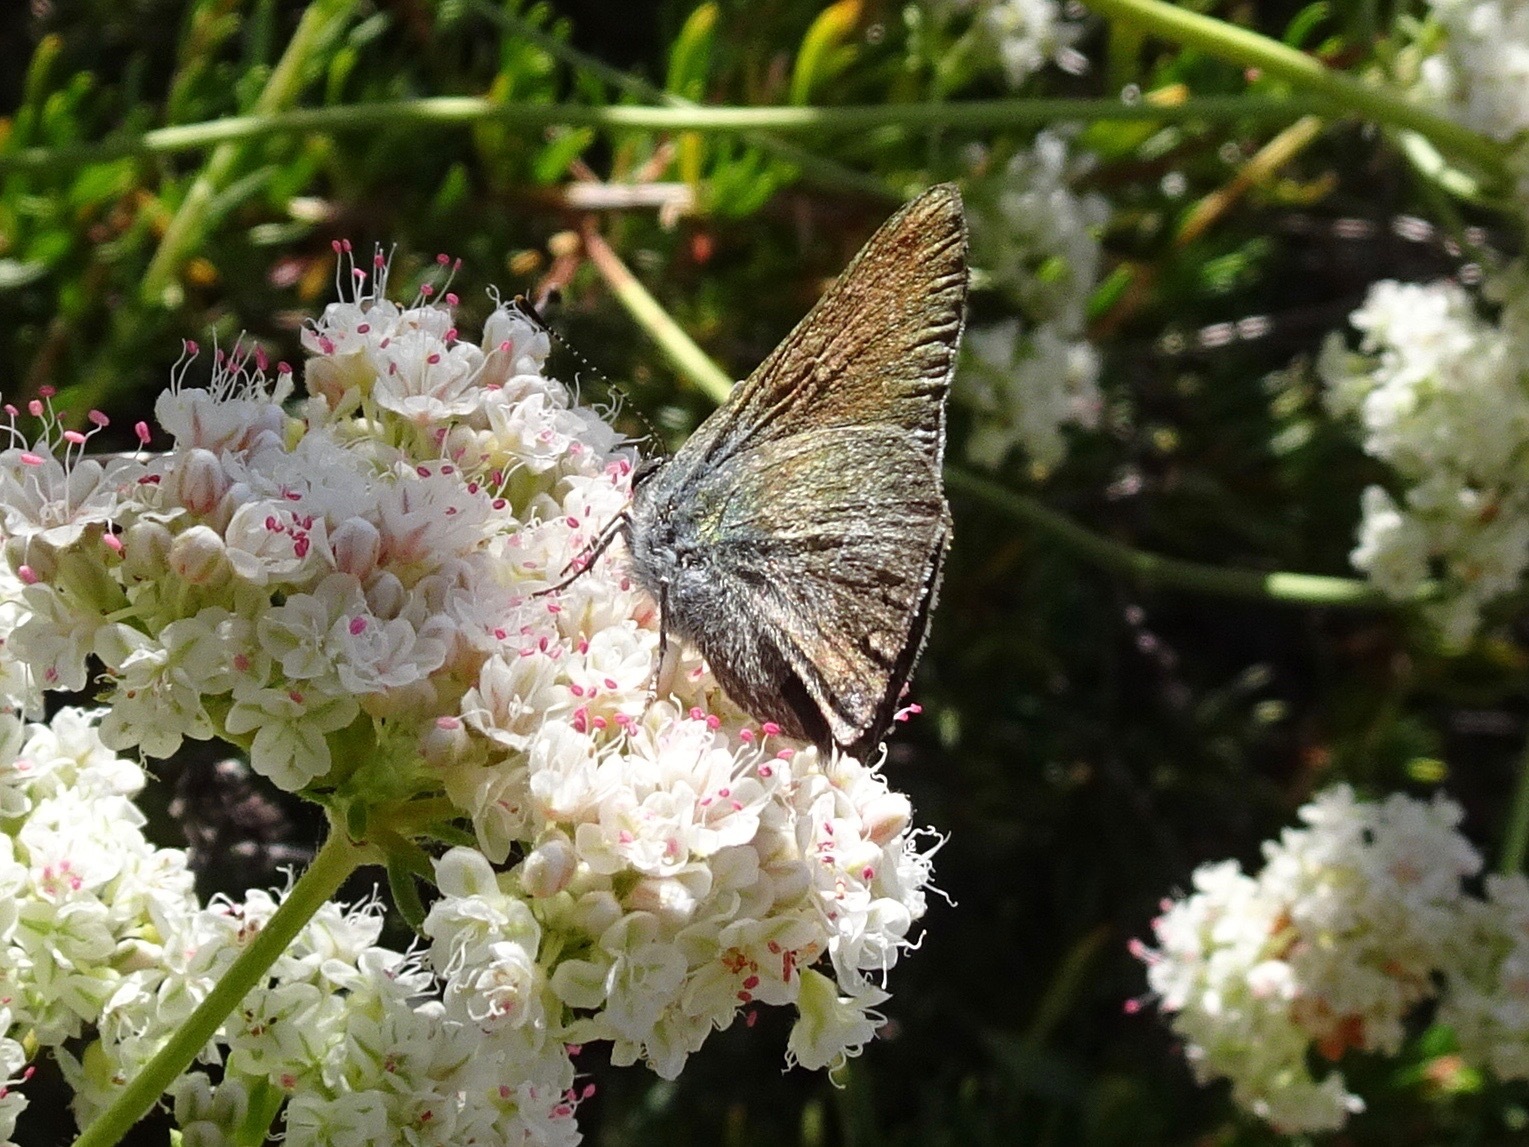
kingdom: Animalia
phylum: Arthropoda
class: Insecta
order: Lepidoptera
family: Lycaenidae
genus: Thecla
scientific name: Thecla tetra
